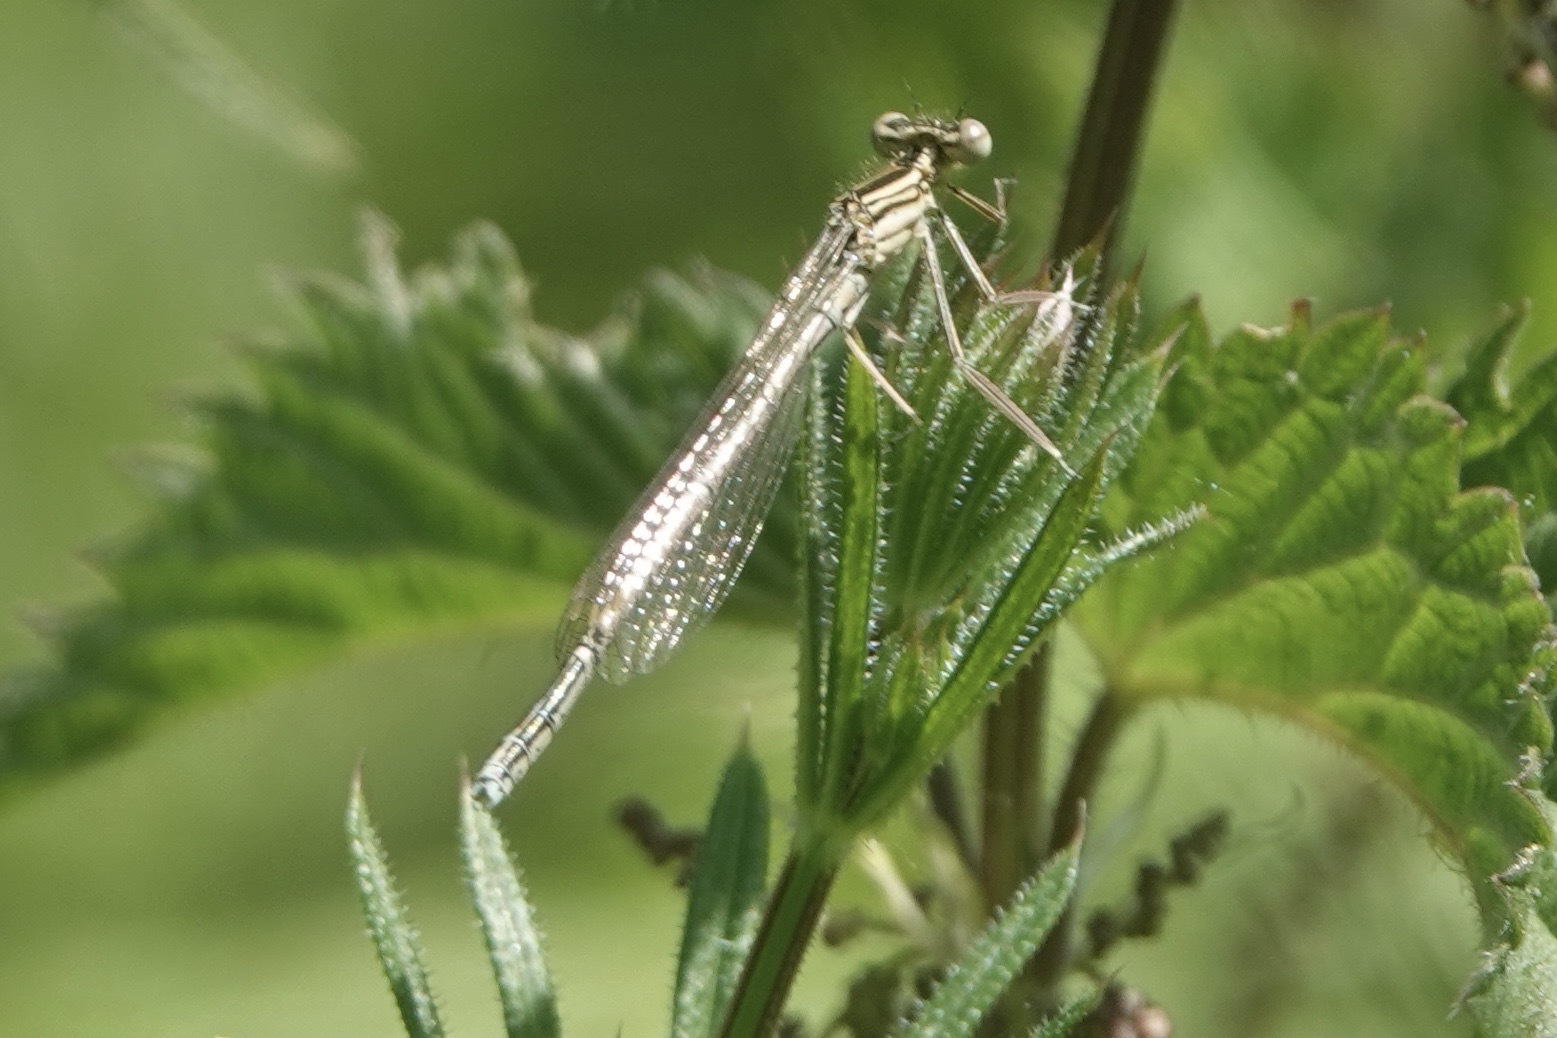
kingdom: Animalia
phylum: Arthropoda
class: Insecta
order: Odonata
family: Platycnemididae
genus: Platycnemis
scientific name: Platycnemis pennipes
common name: White-legged damselfly
